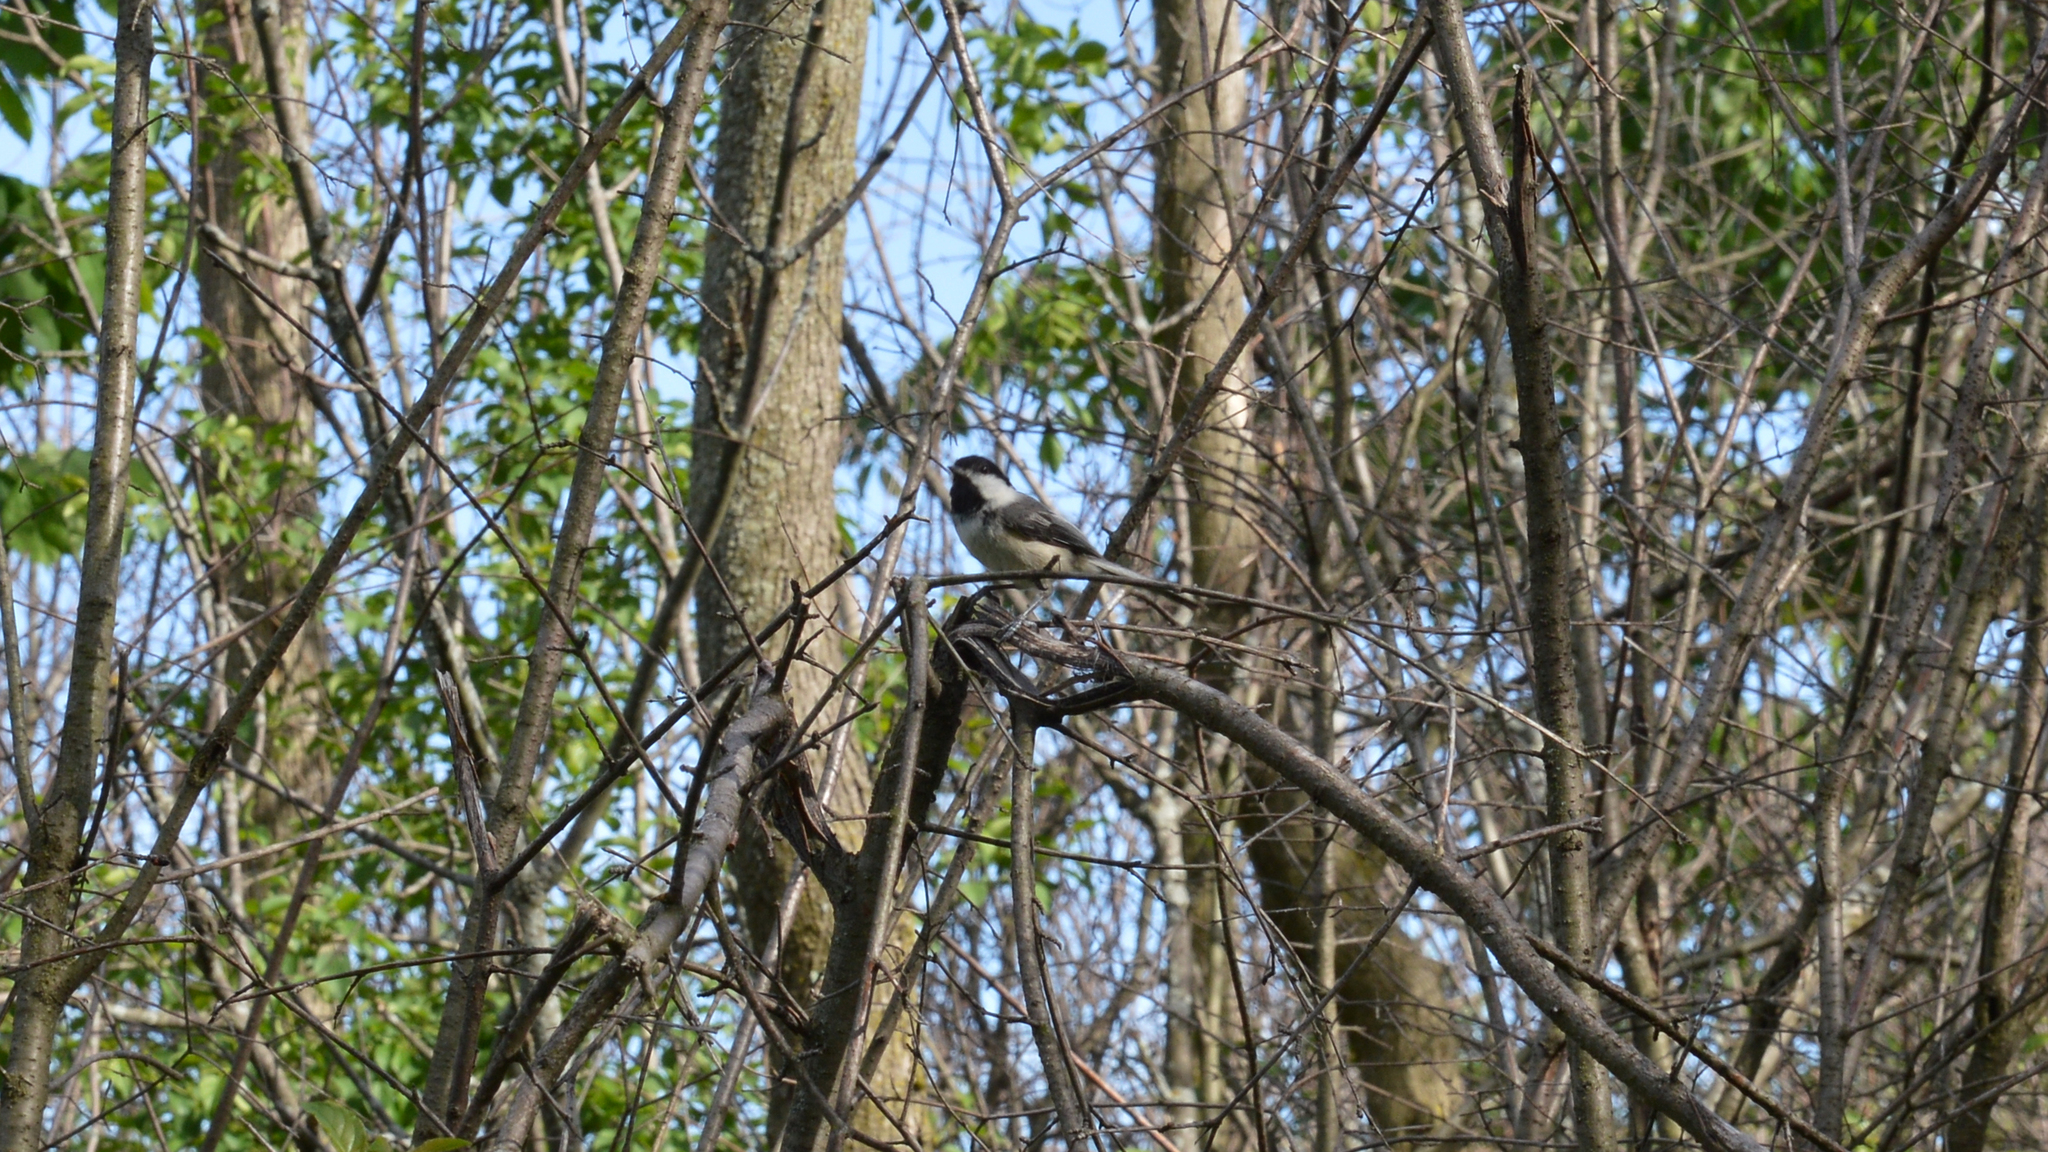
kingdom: Animalia
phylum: Chordata
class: Aves
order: Passeriformes
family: Paridae
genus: Poecile
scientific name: Poecile atricapillus
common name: Black-capped chickadee
